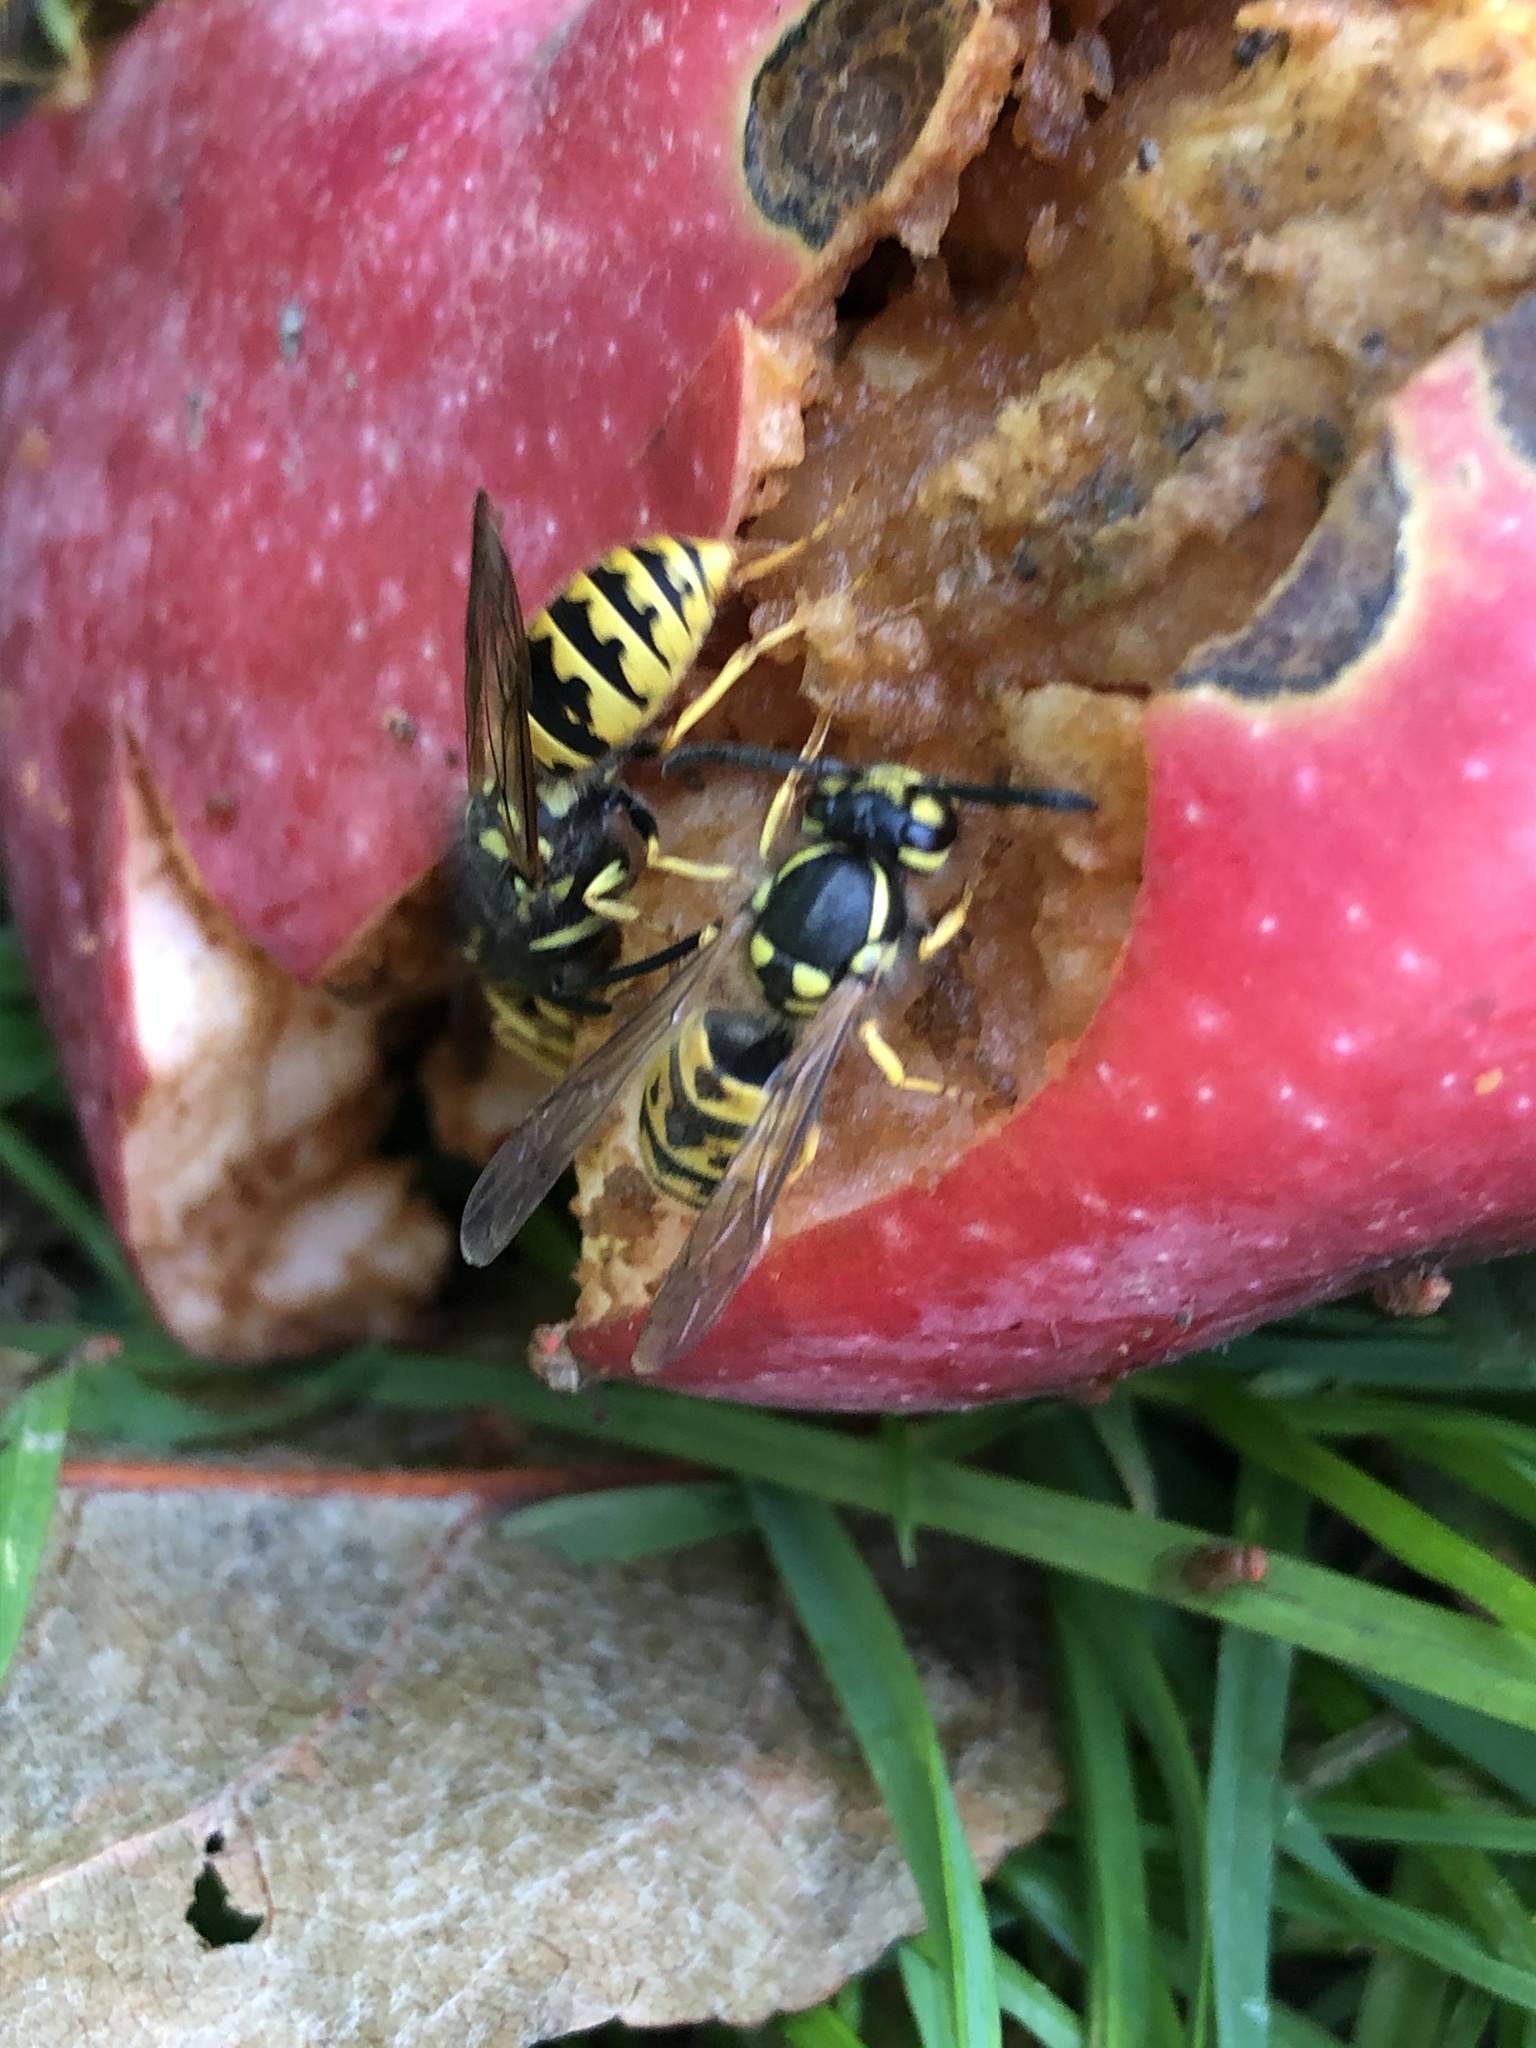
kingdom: Animalia
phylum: Arthropoda
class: Insecta
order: Hymenoptera
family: Vespidae
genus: Vespula
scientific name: Vespula germanica
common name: German wasp
